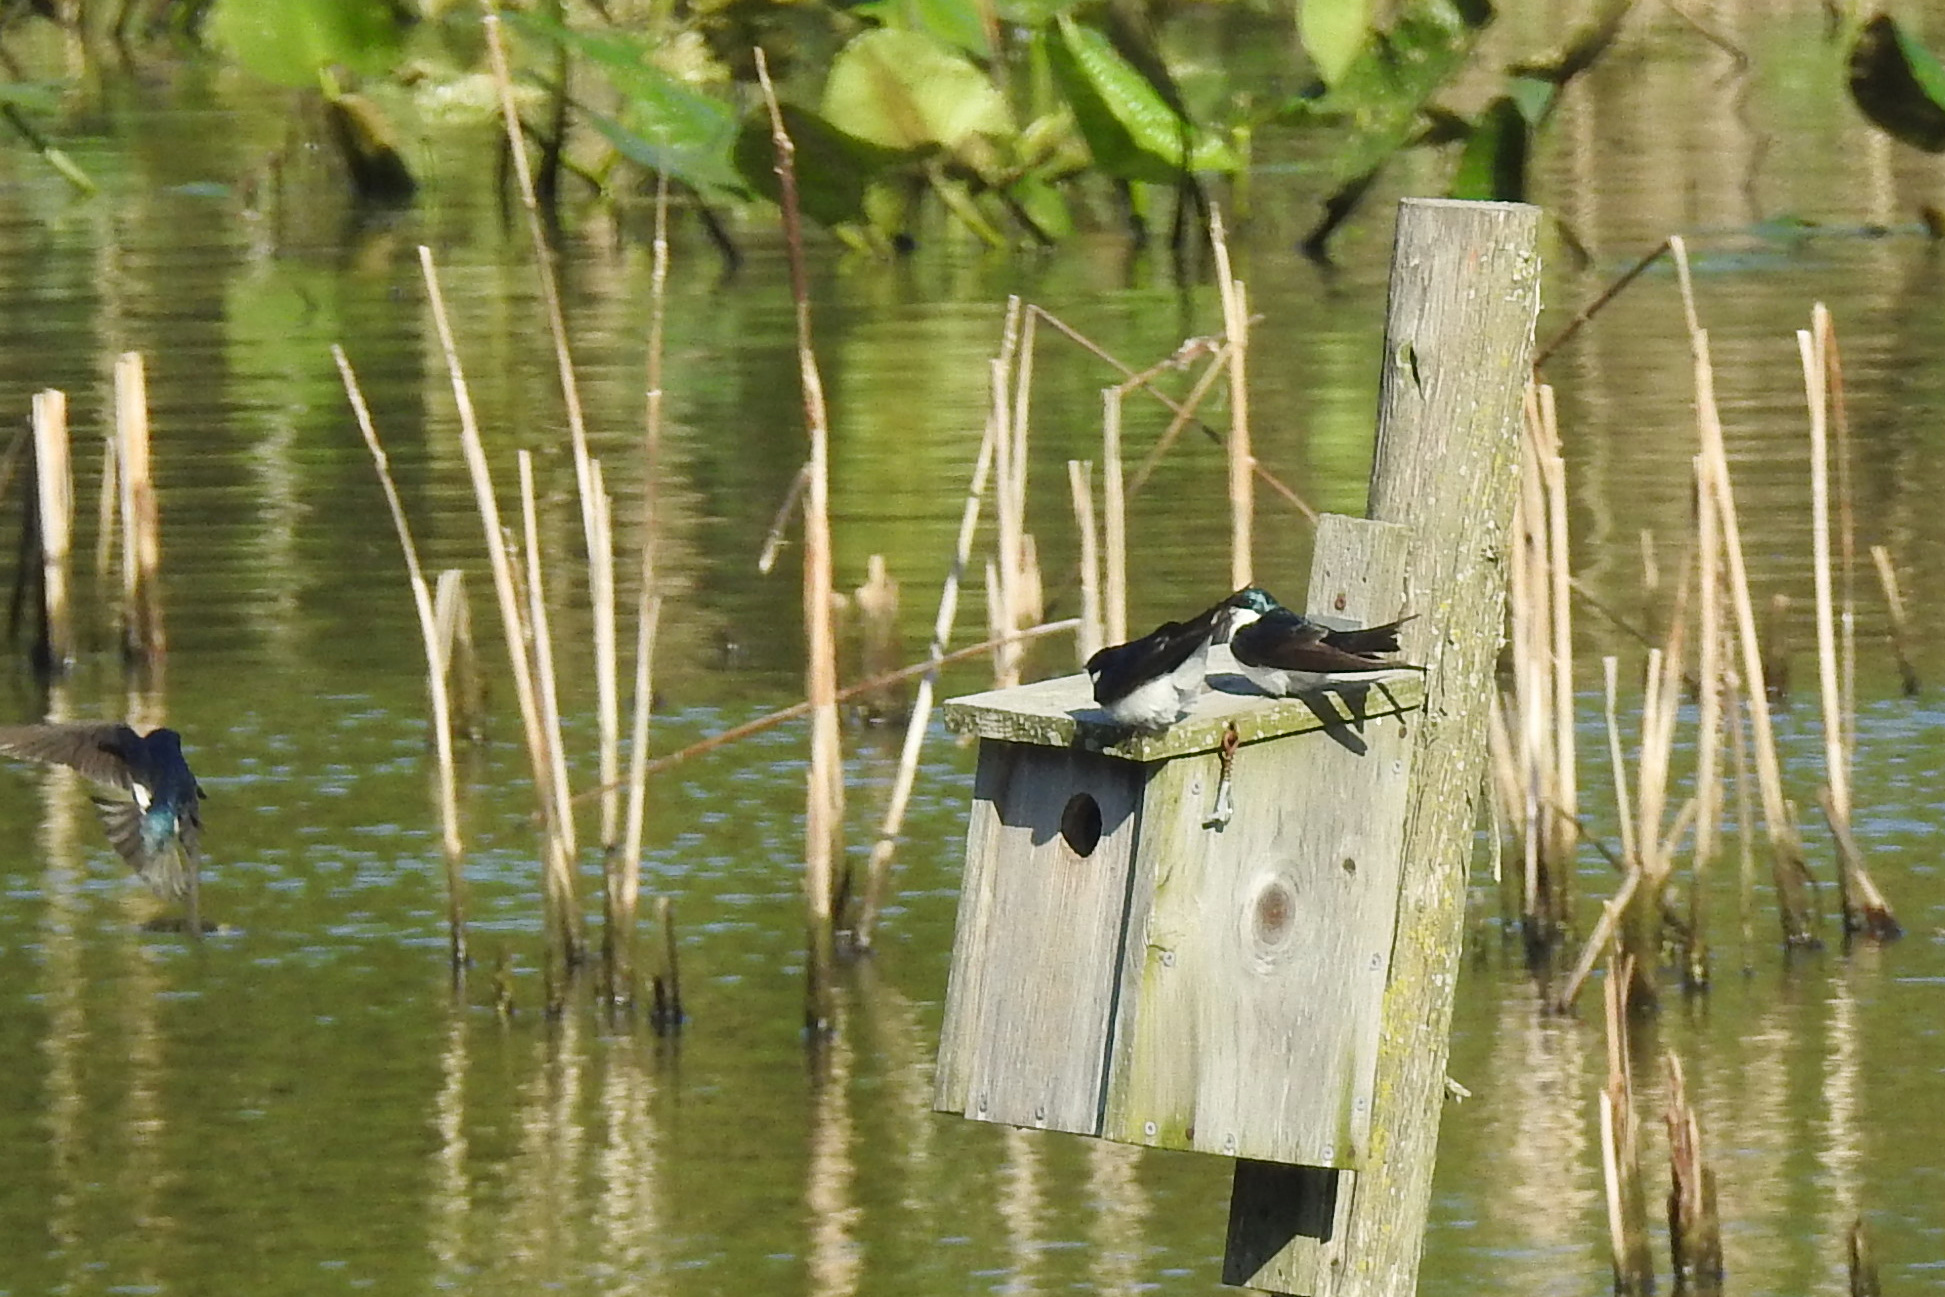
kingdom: Animalia
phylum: Chordata
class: Aves
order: Passeriformes
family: Hirundinidae
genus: Tachycineta
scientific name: Tachycineta bicolor
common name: Tree swallow
